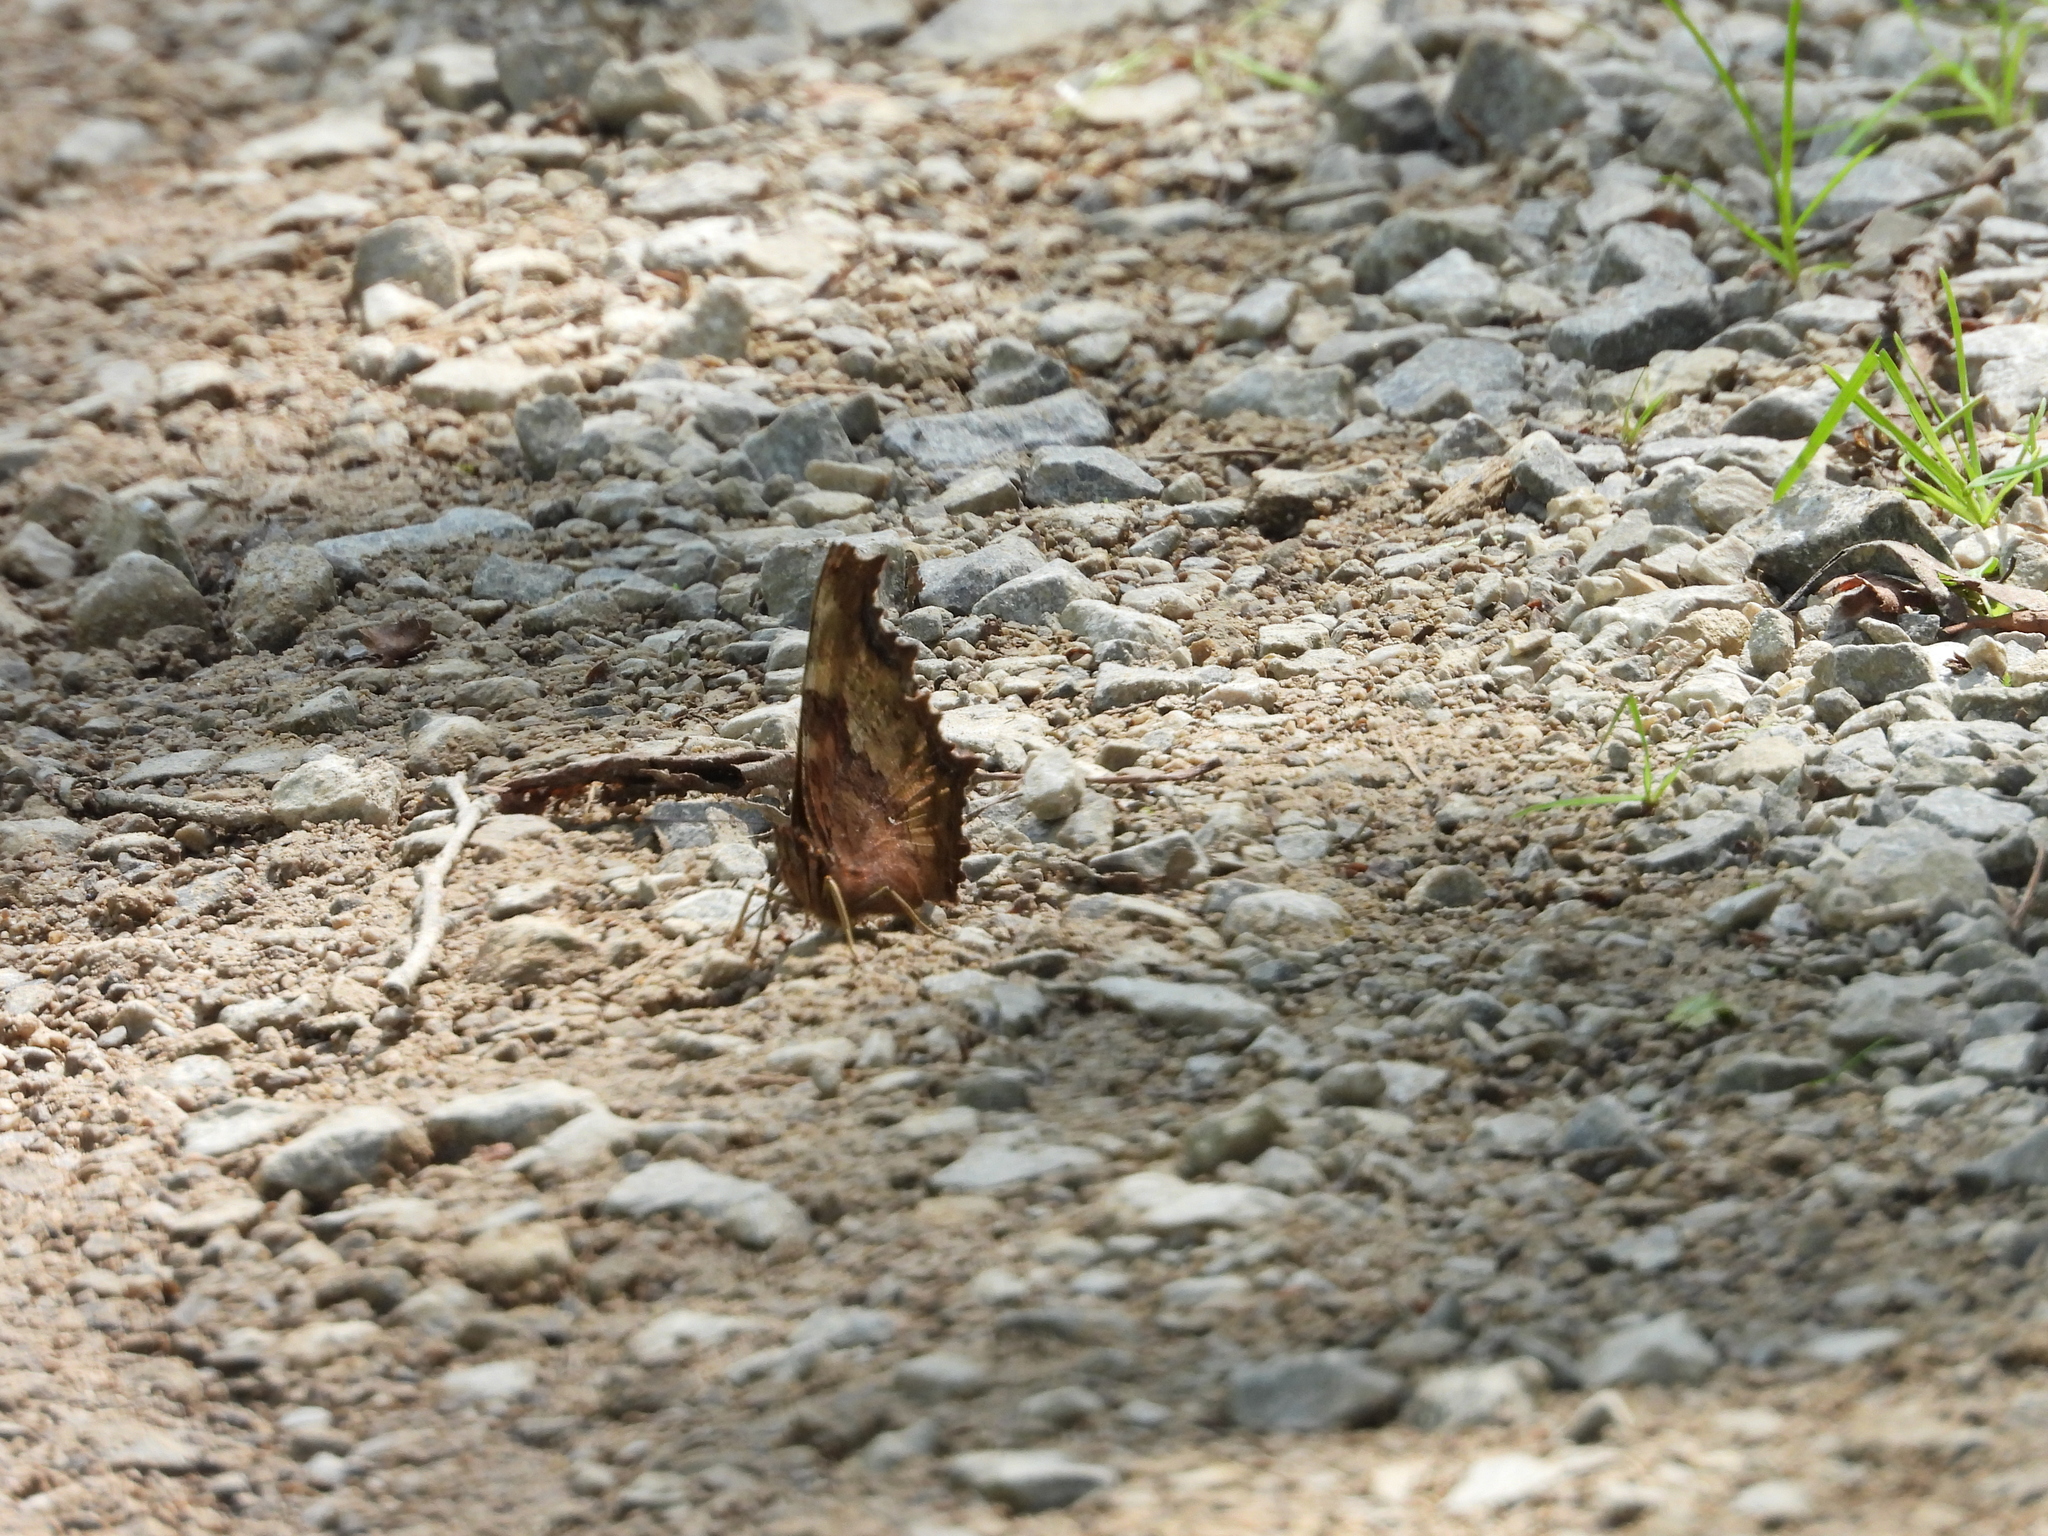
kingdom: Animalia
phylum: Arthropoda
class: Insecta
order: Lepidoptera
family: Nymphalidae
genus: Polygonia
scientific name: Polygonia vaualbum
